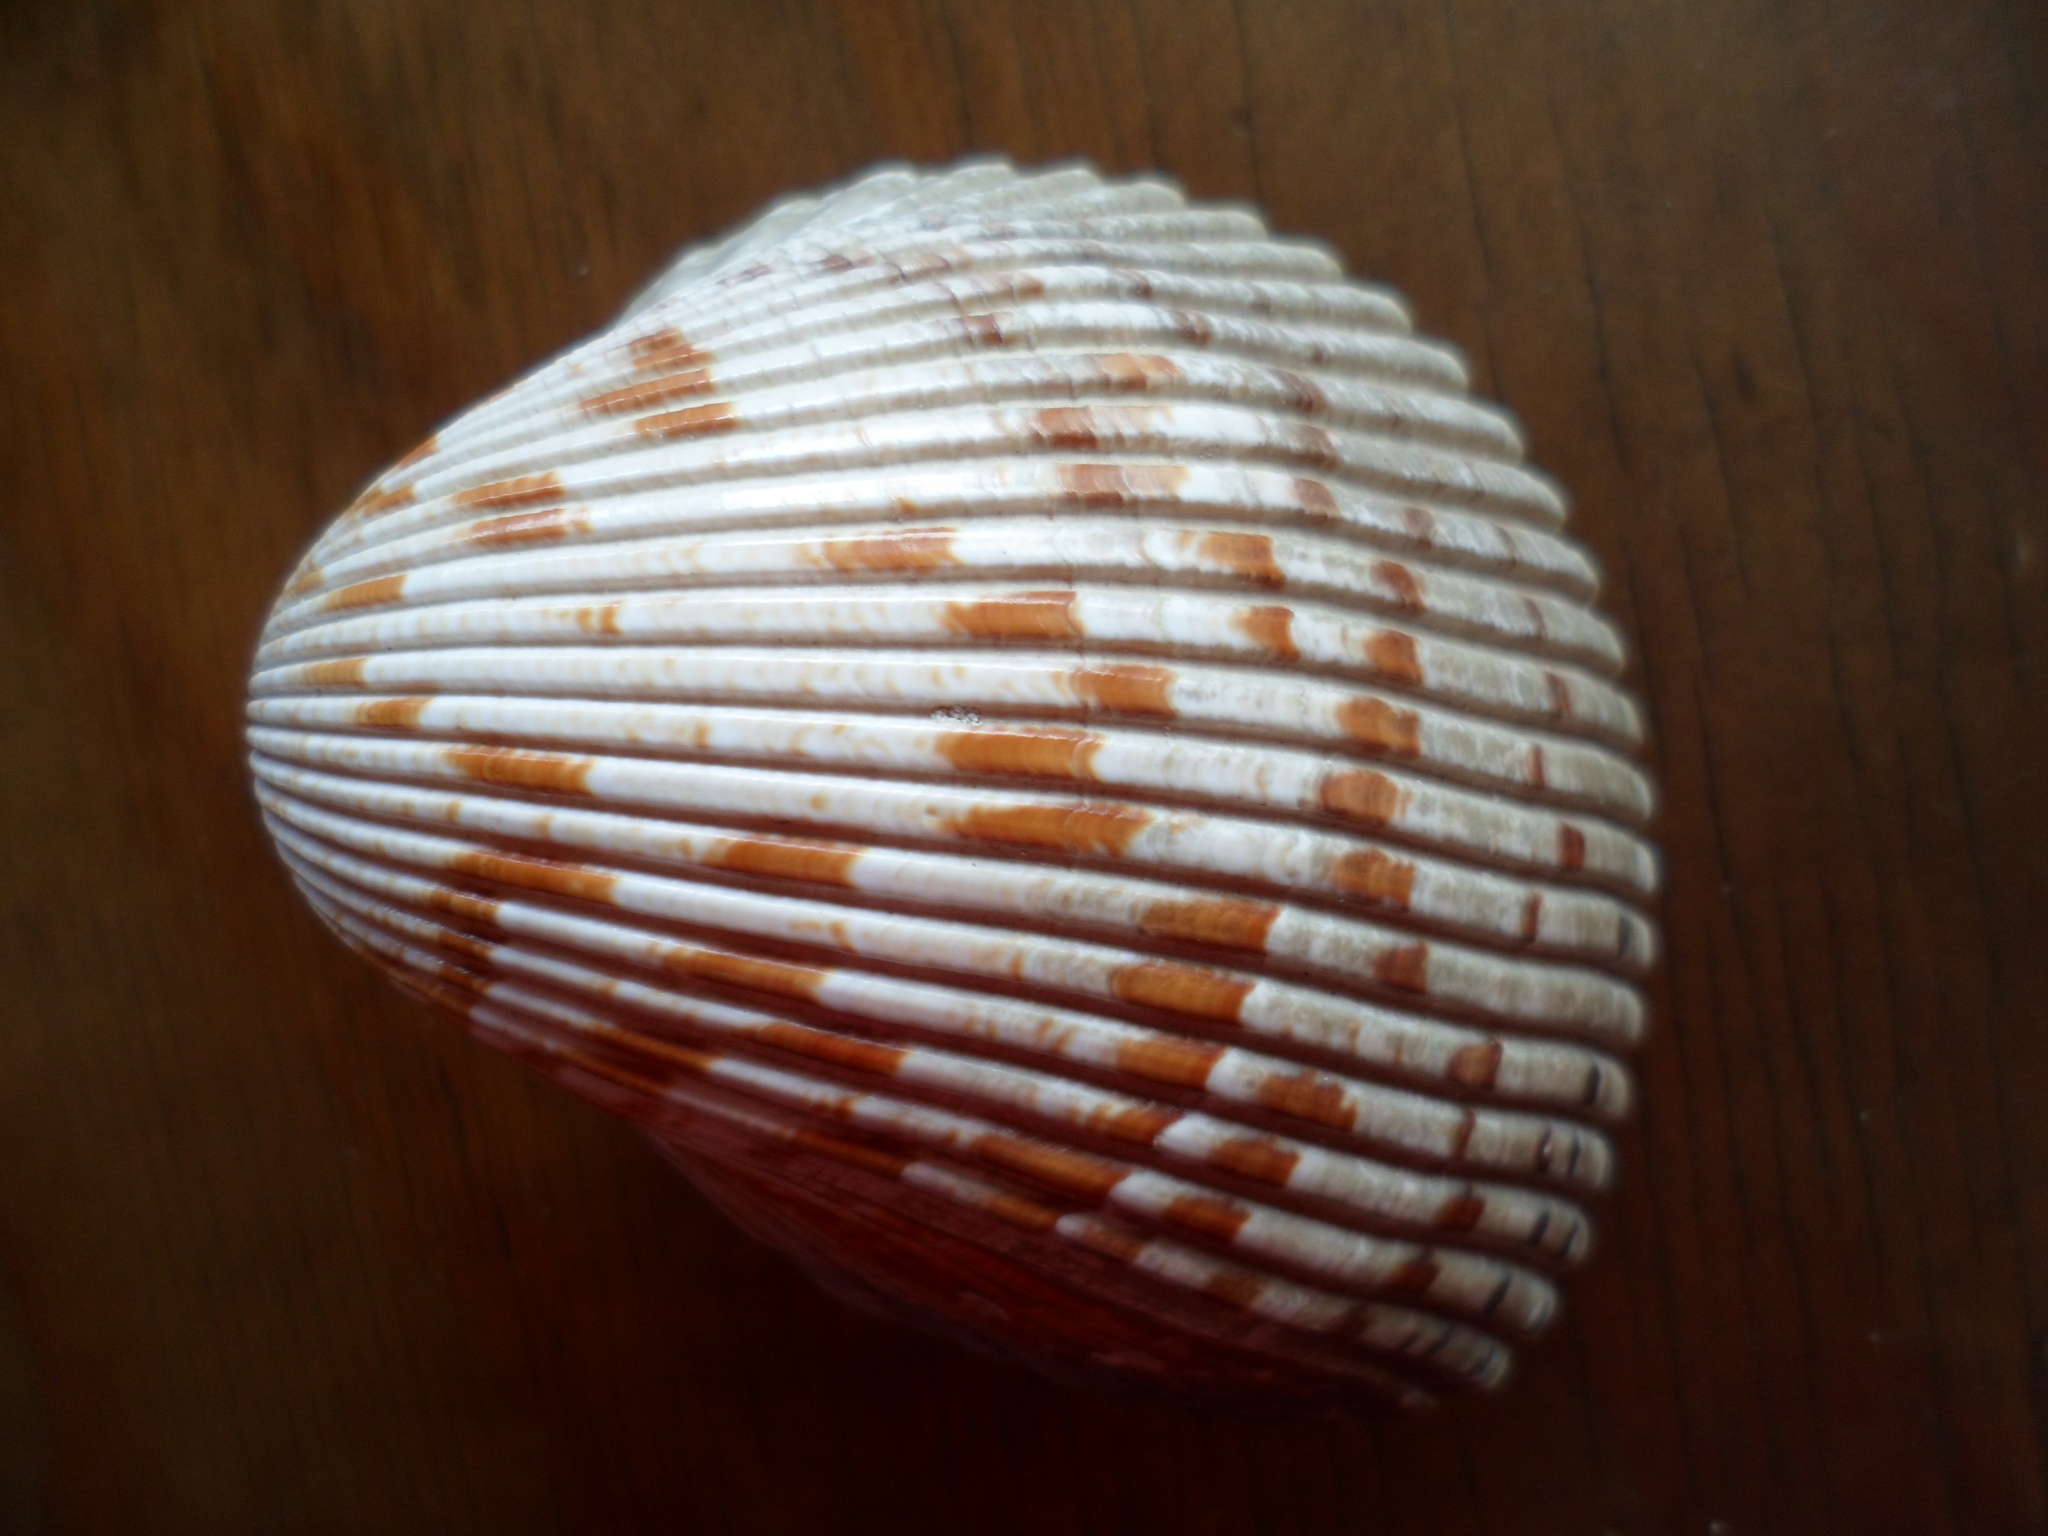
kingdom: Animalia
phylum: Mollusca
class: Bivalvia
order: Cardiida
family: Cardiidae
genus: Dinocardium
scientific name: Dinocardium robustum
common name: Atlantic giant cockle
